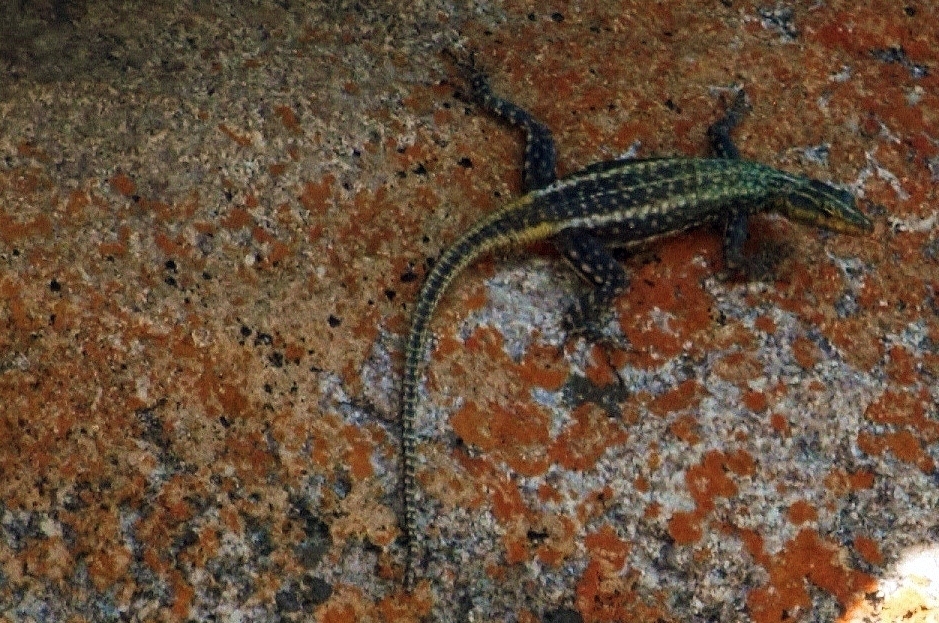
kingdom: Animalia
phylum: Chordata
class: Squamata
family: Cordylidae
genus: Platysaurus
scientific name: Platysaurus intermedius
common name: Common flat lizard
